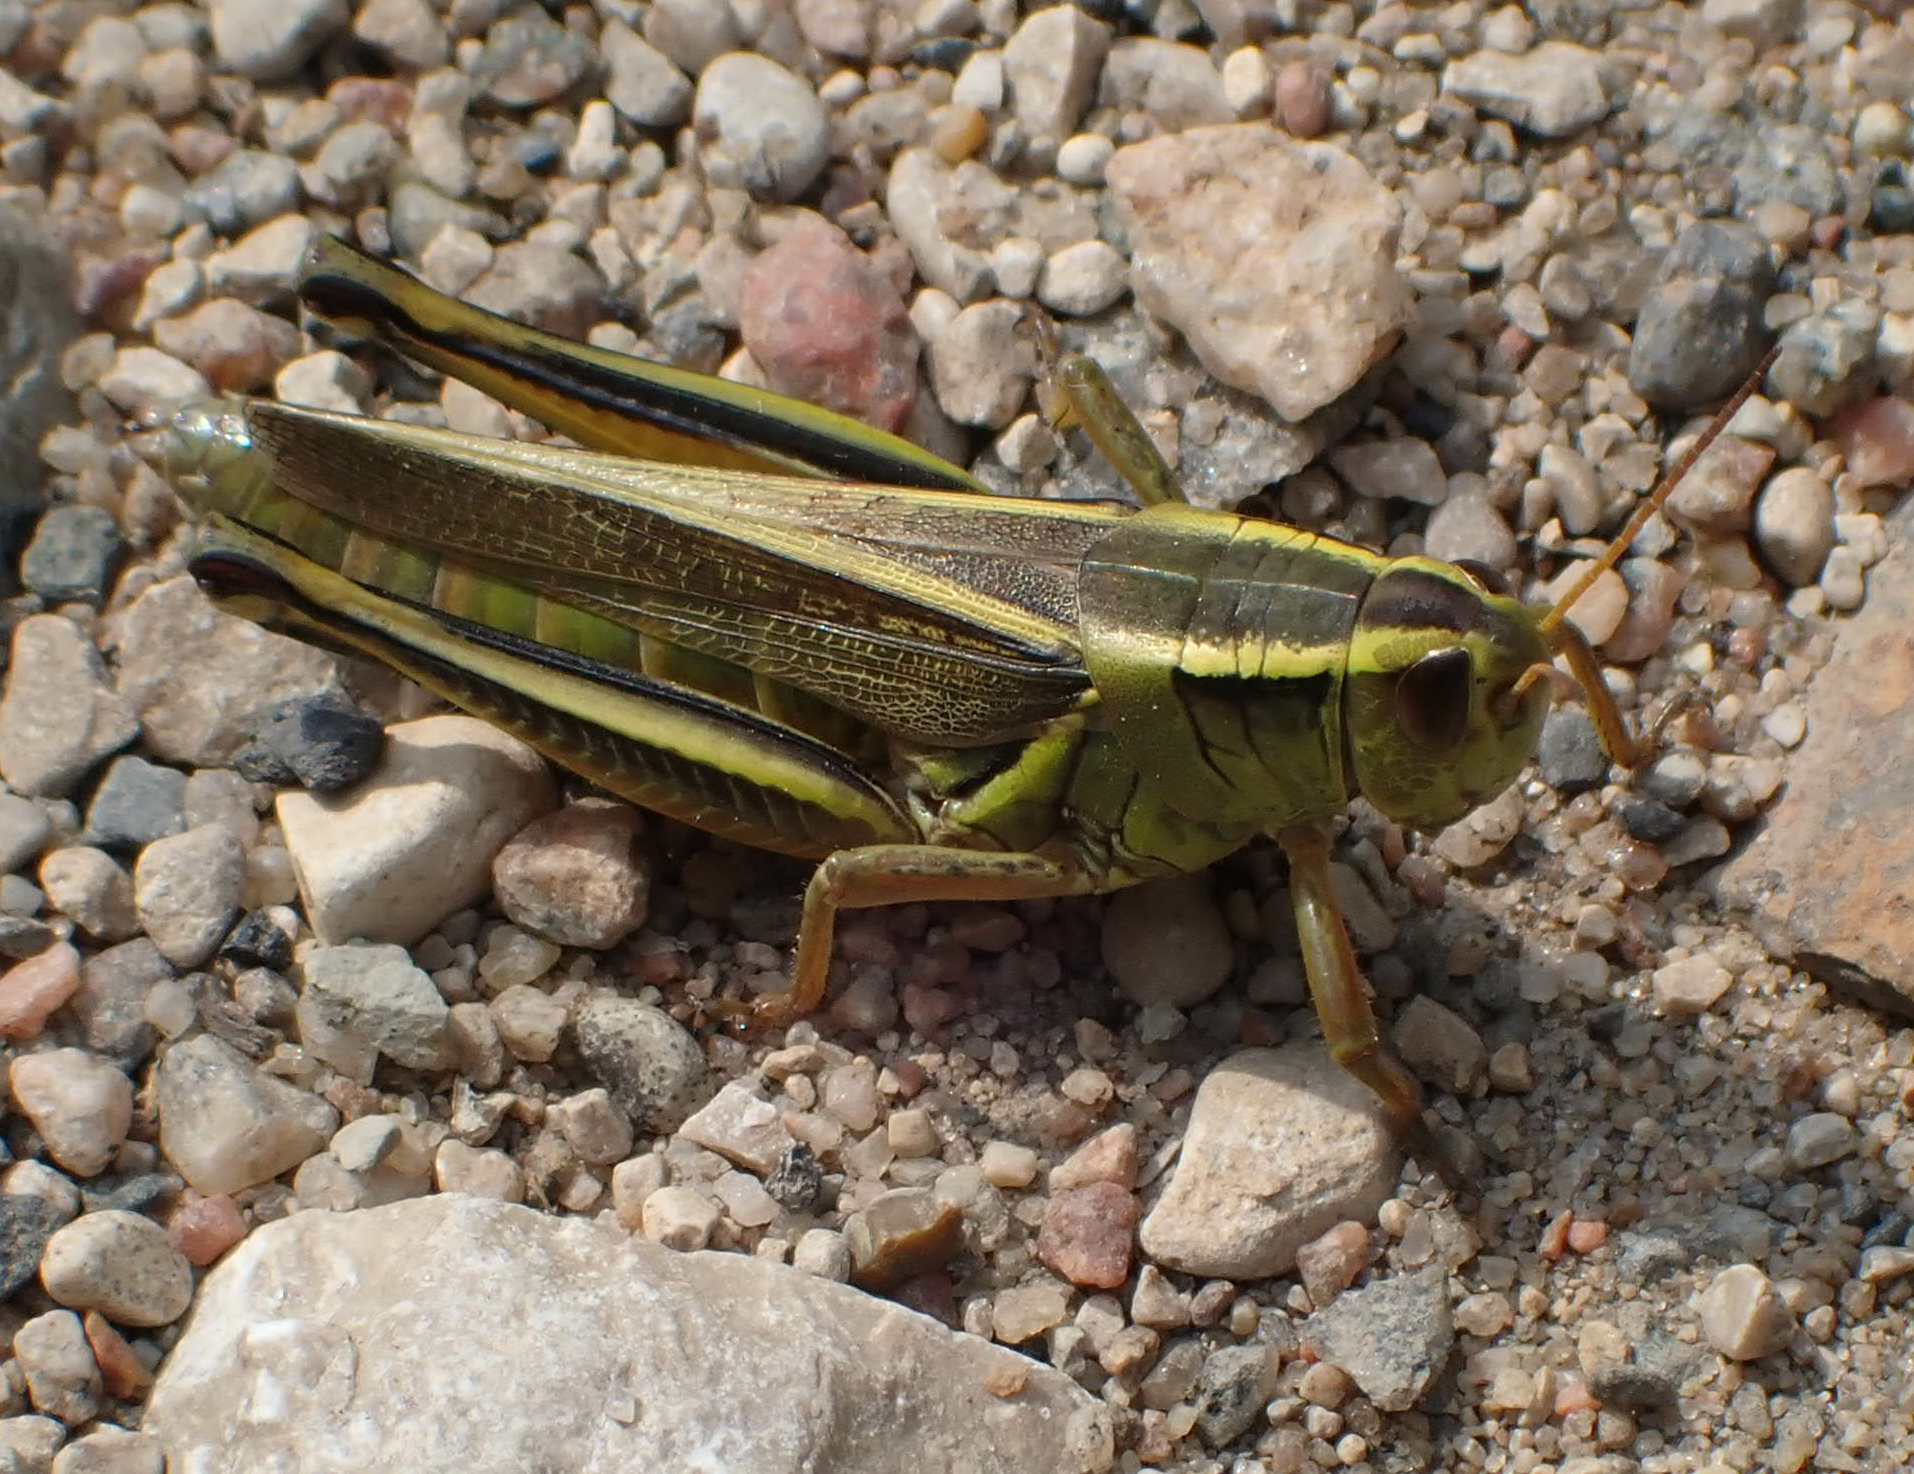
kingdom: Animalia
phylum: Arthropoda
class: Insecta
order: Orthoptera
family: Acrididae
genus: Melanoplus
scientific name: Melanoplus bivittatus
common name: Two-striped grasshopper
